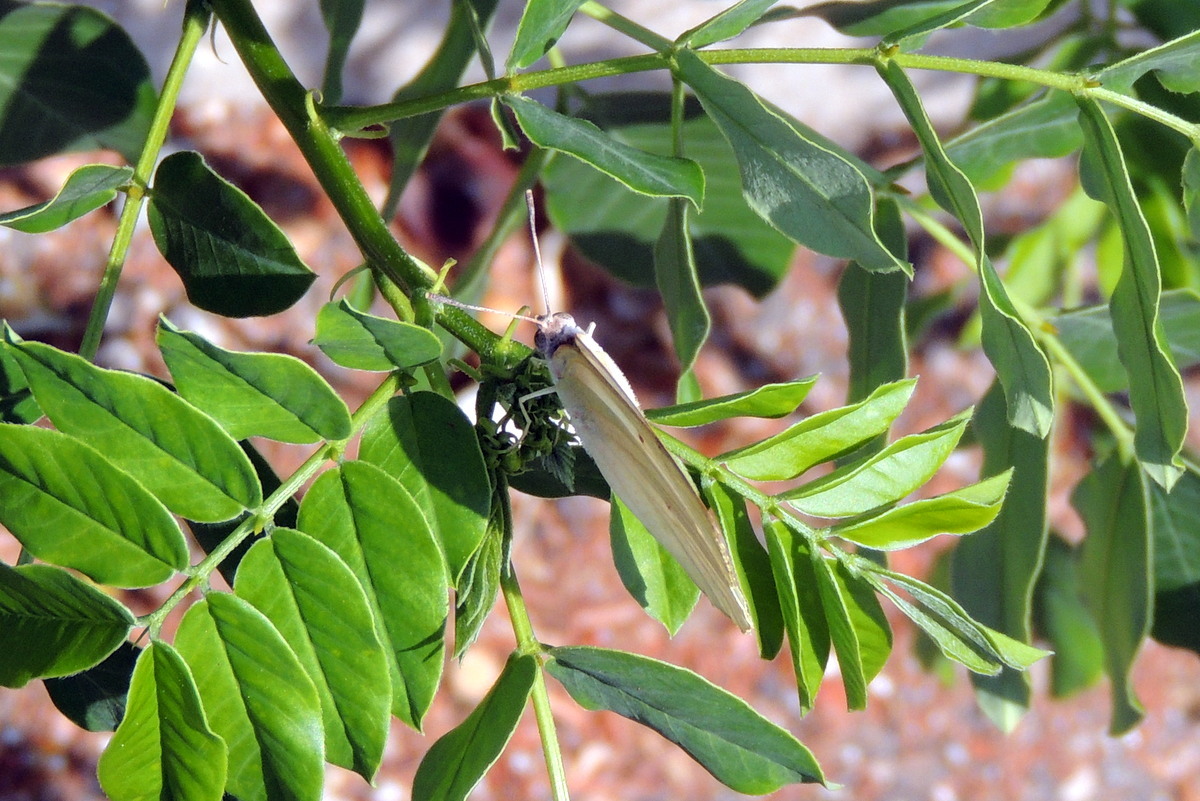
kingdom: Animalia
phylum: Arthropoda
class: Insecta
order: Lepidoptera
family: Pieridae
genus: Catopsilia
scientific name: Catopsilia florella
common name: African migrant
